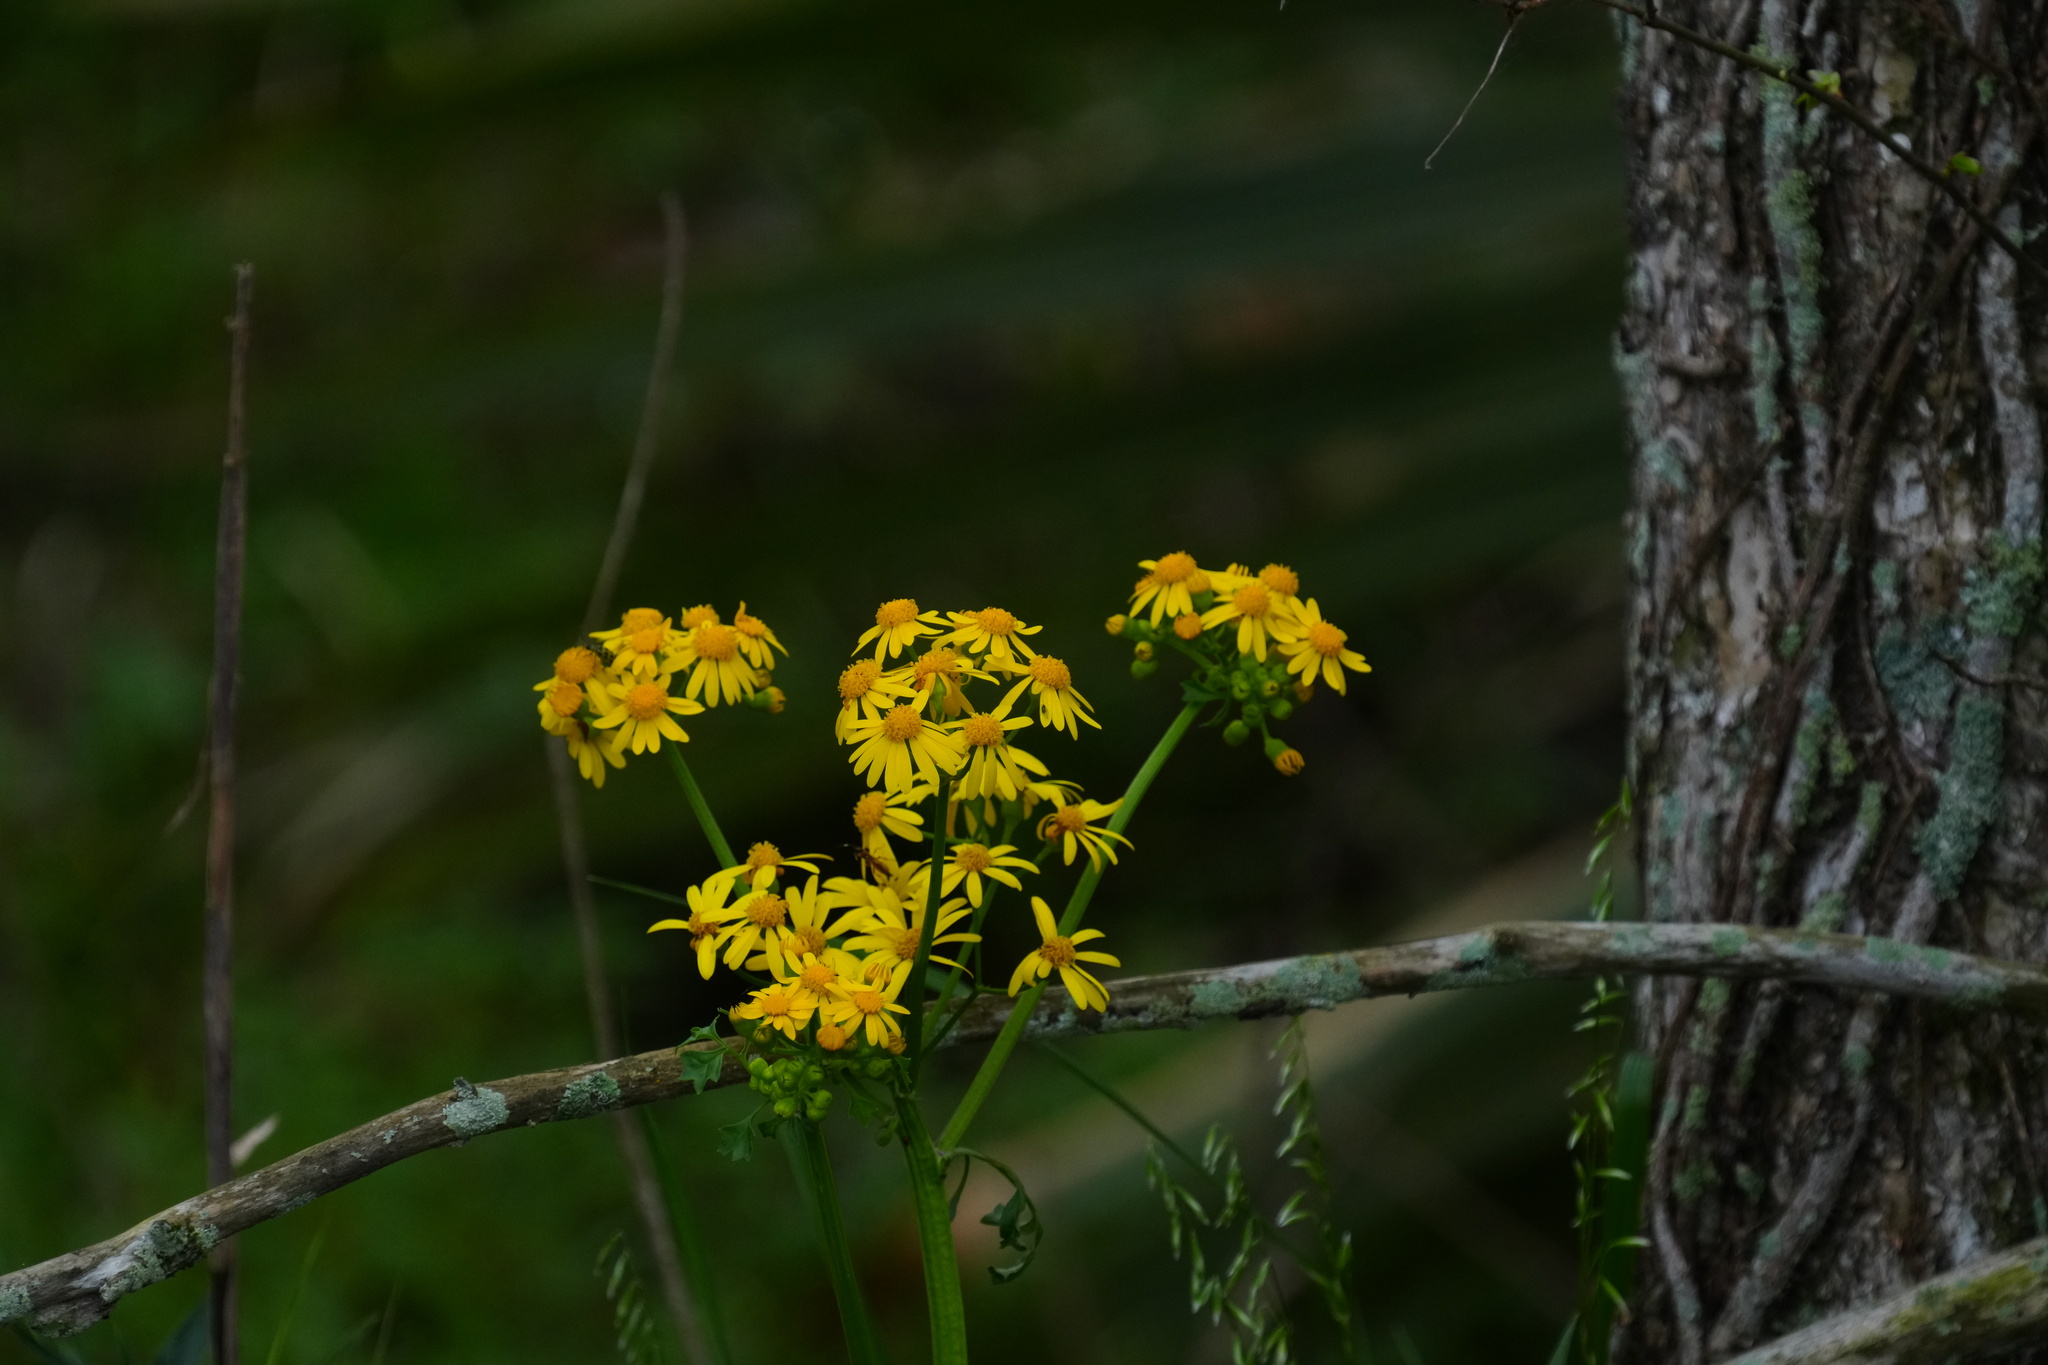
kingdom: Plantae
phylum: Tracheophyta
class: Magnoliopsida
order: Asterales
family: Asteraceae
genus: Packera
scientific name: Packera glabella
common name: Butterweed
